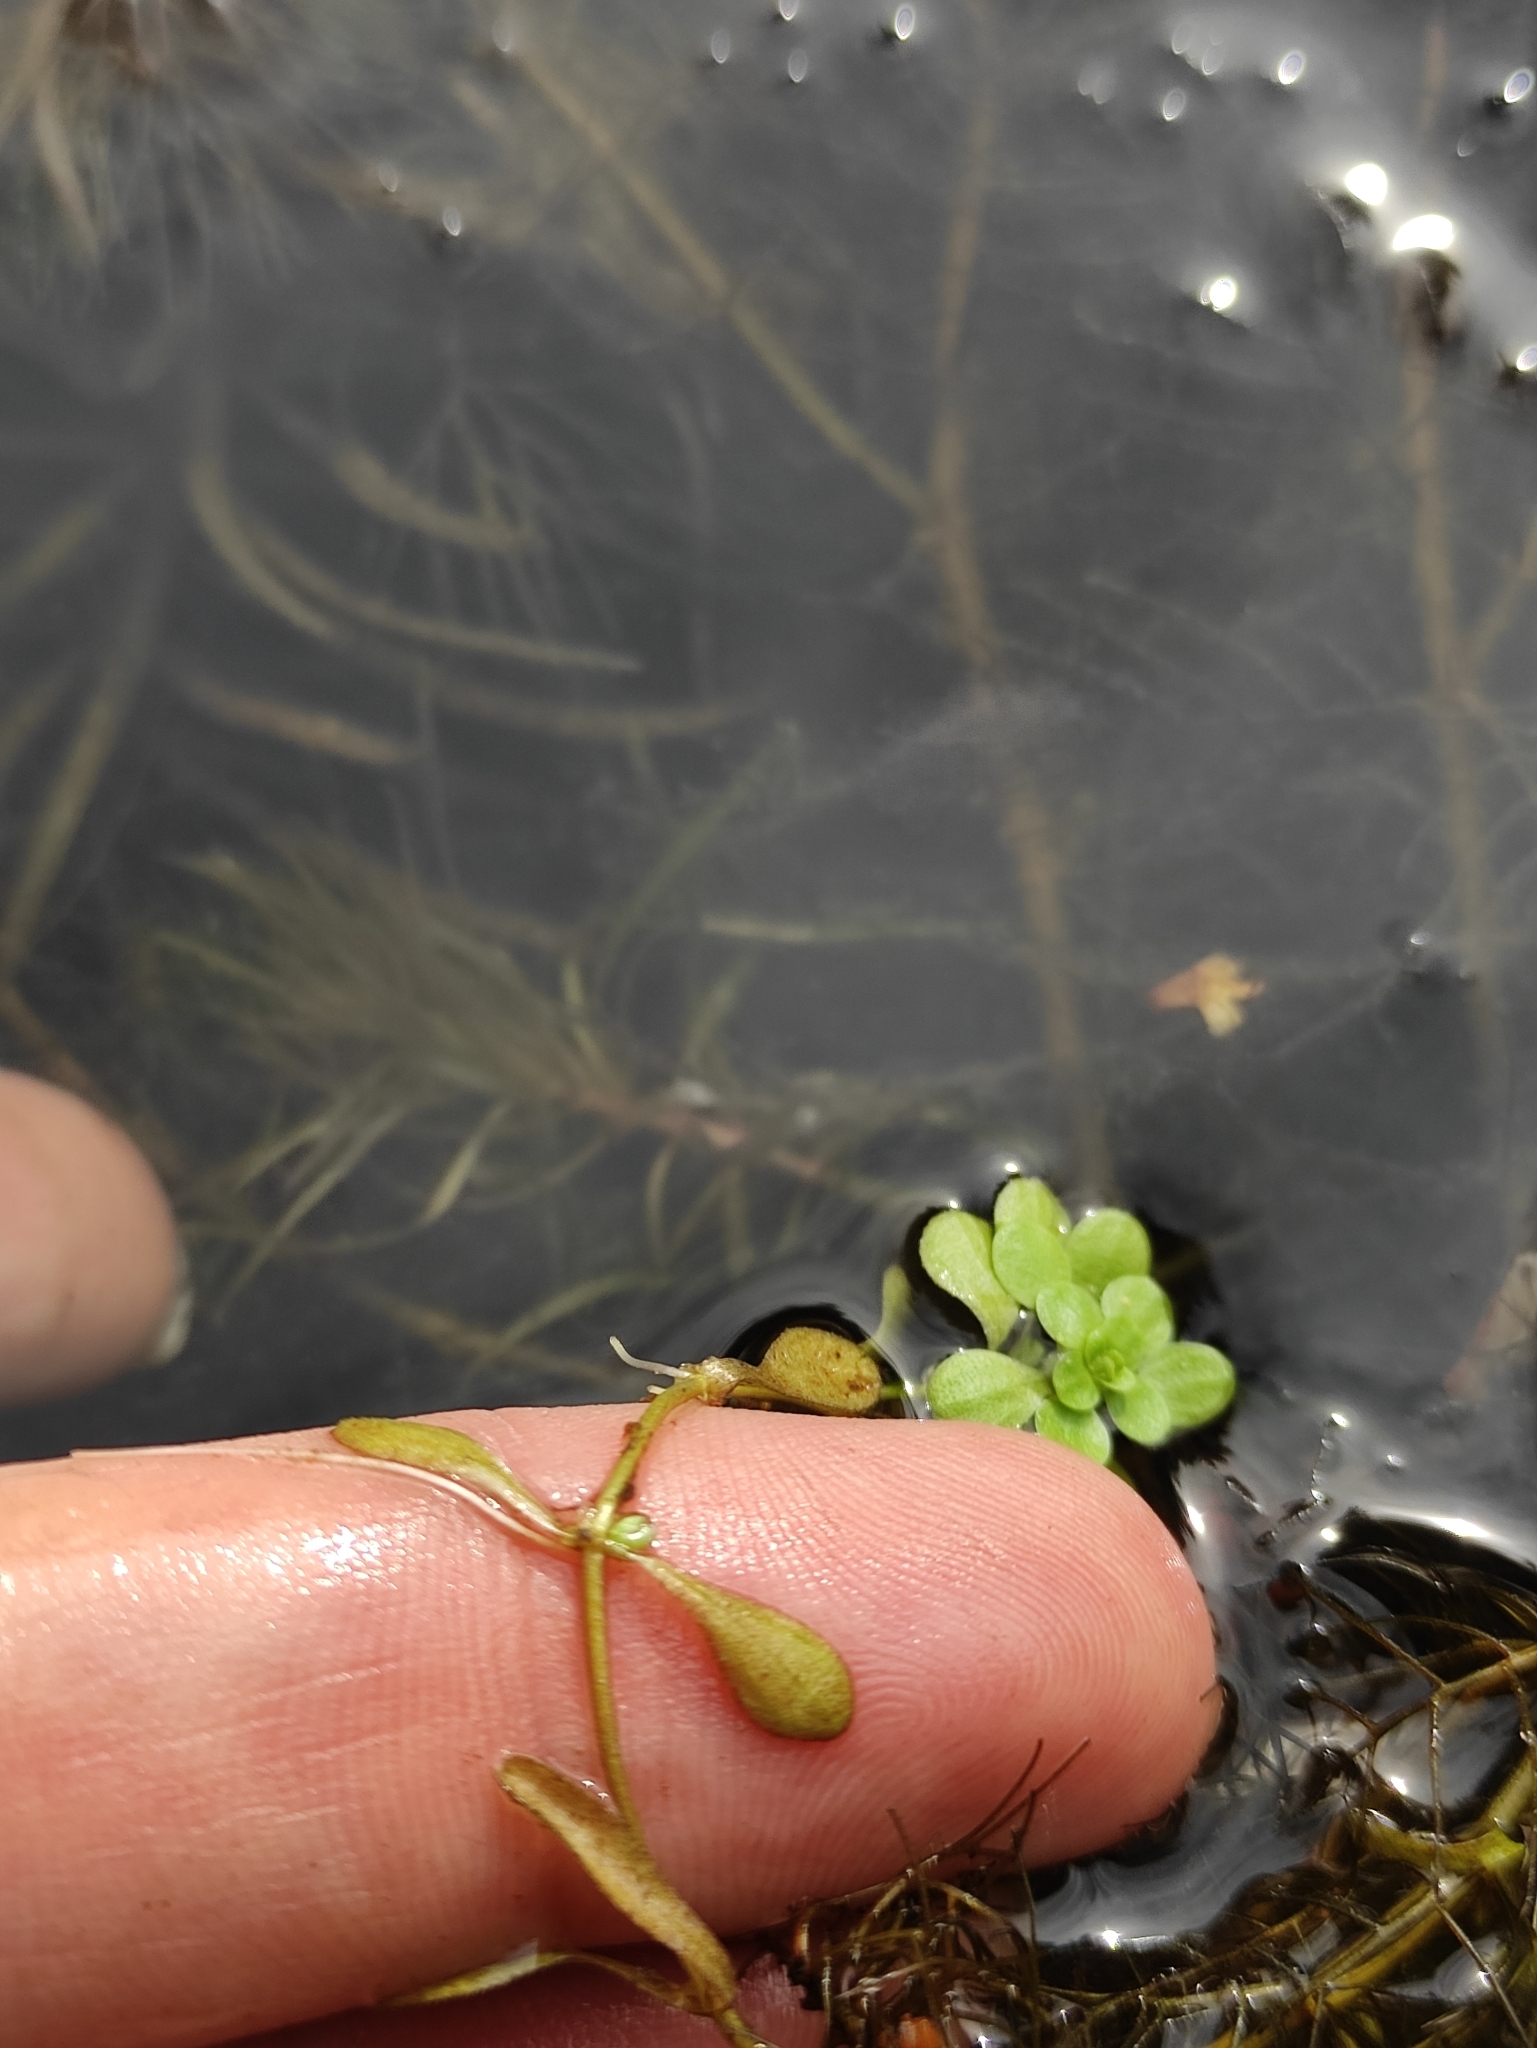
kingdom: Plantae
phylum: Tracheophyta
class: Magnoliopsida
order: Lamiales
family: Plantaginaceae
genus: Callitriche
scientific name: Callitriche palustris
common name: Spring water-starwort
